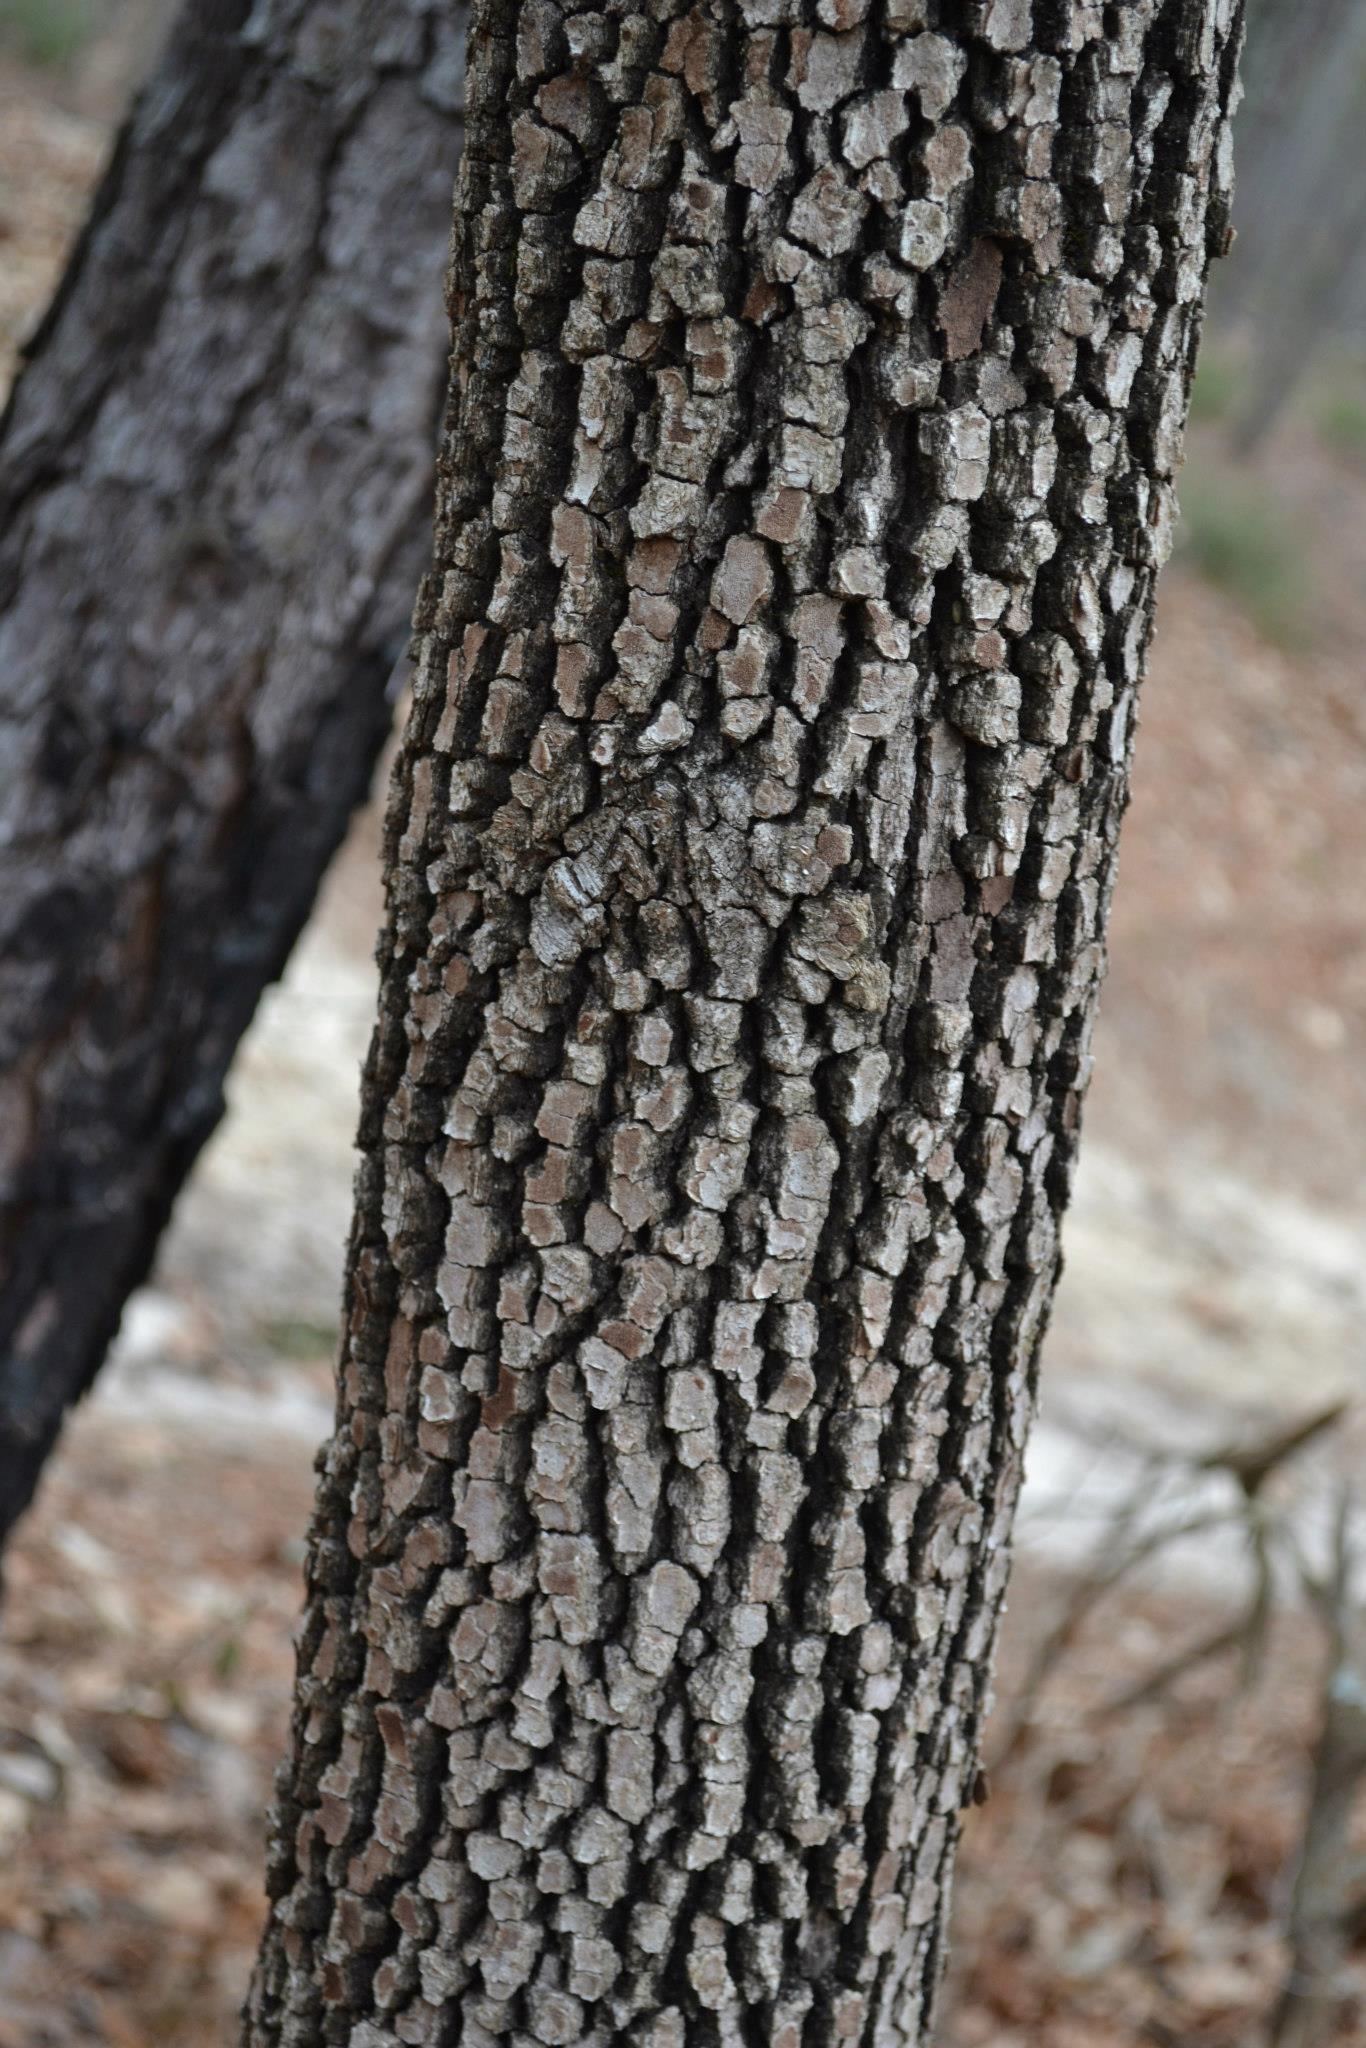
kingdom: Plantae
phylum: Tracheophyta
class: Magnoliopsida
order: Ericales
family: Ebenaceae
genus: Diospyros
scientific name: Diospyros virginiana
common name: Persimmon
